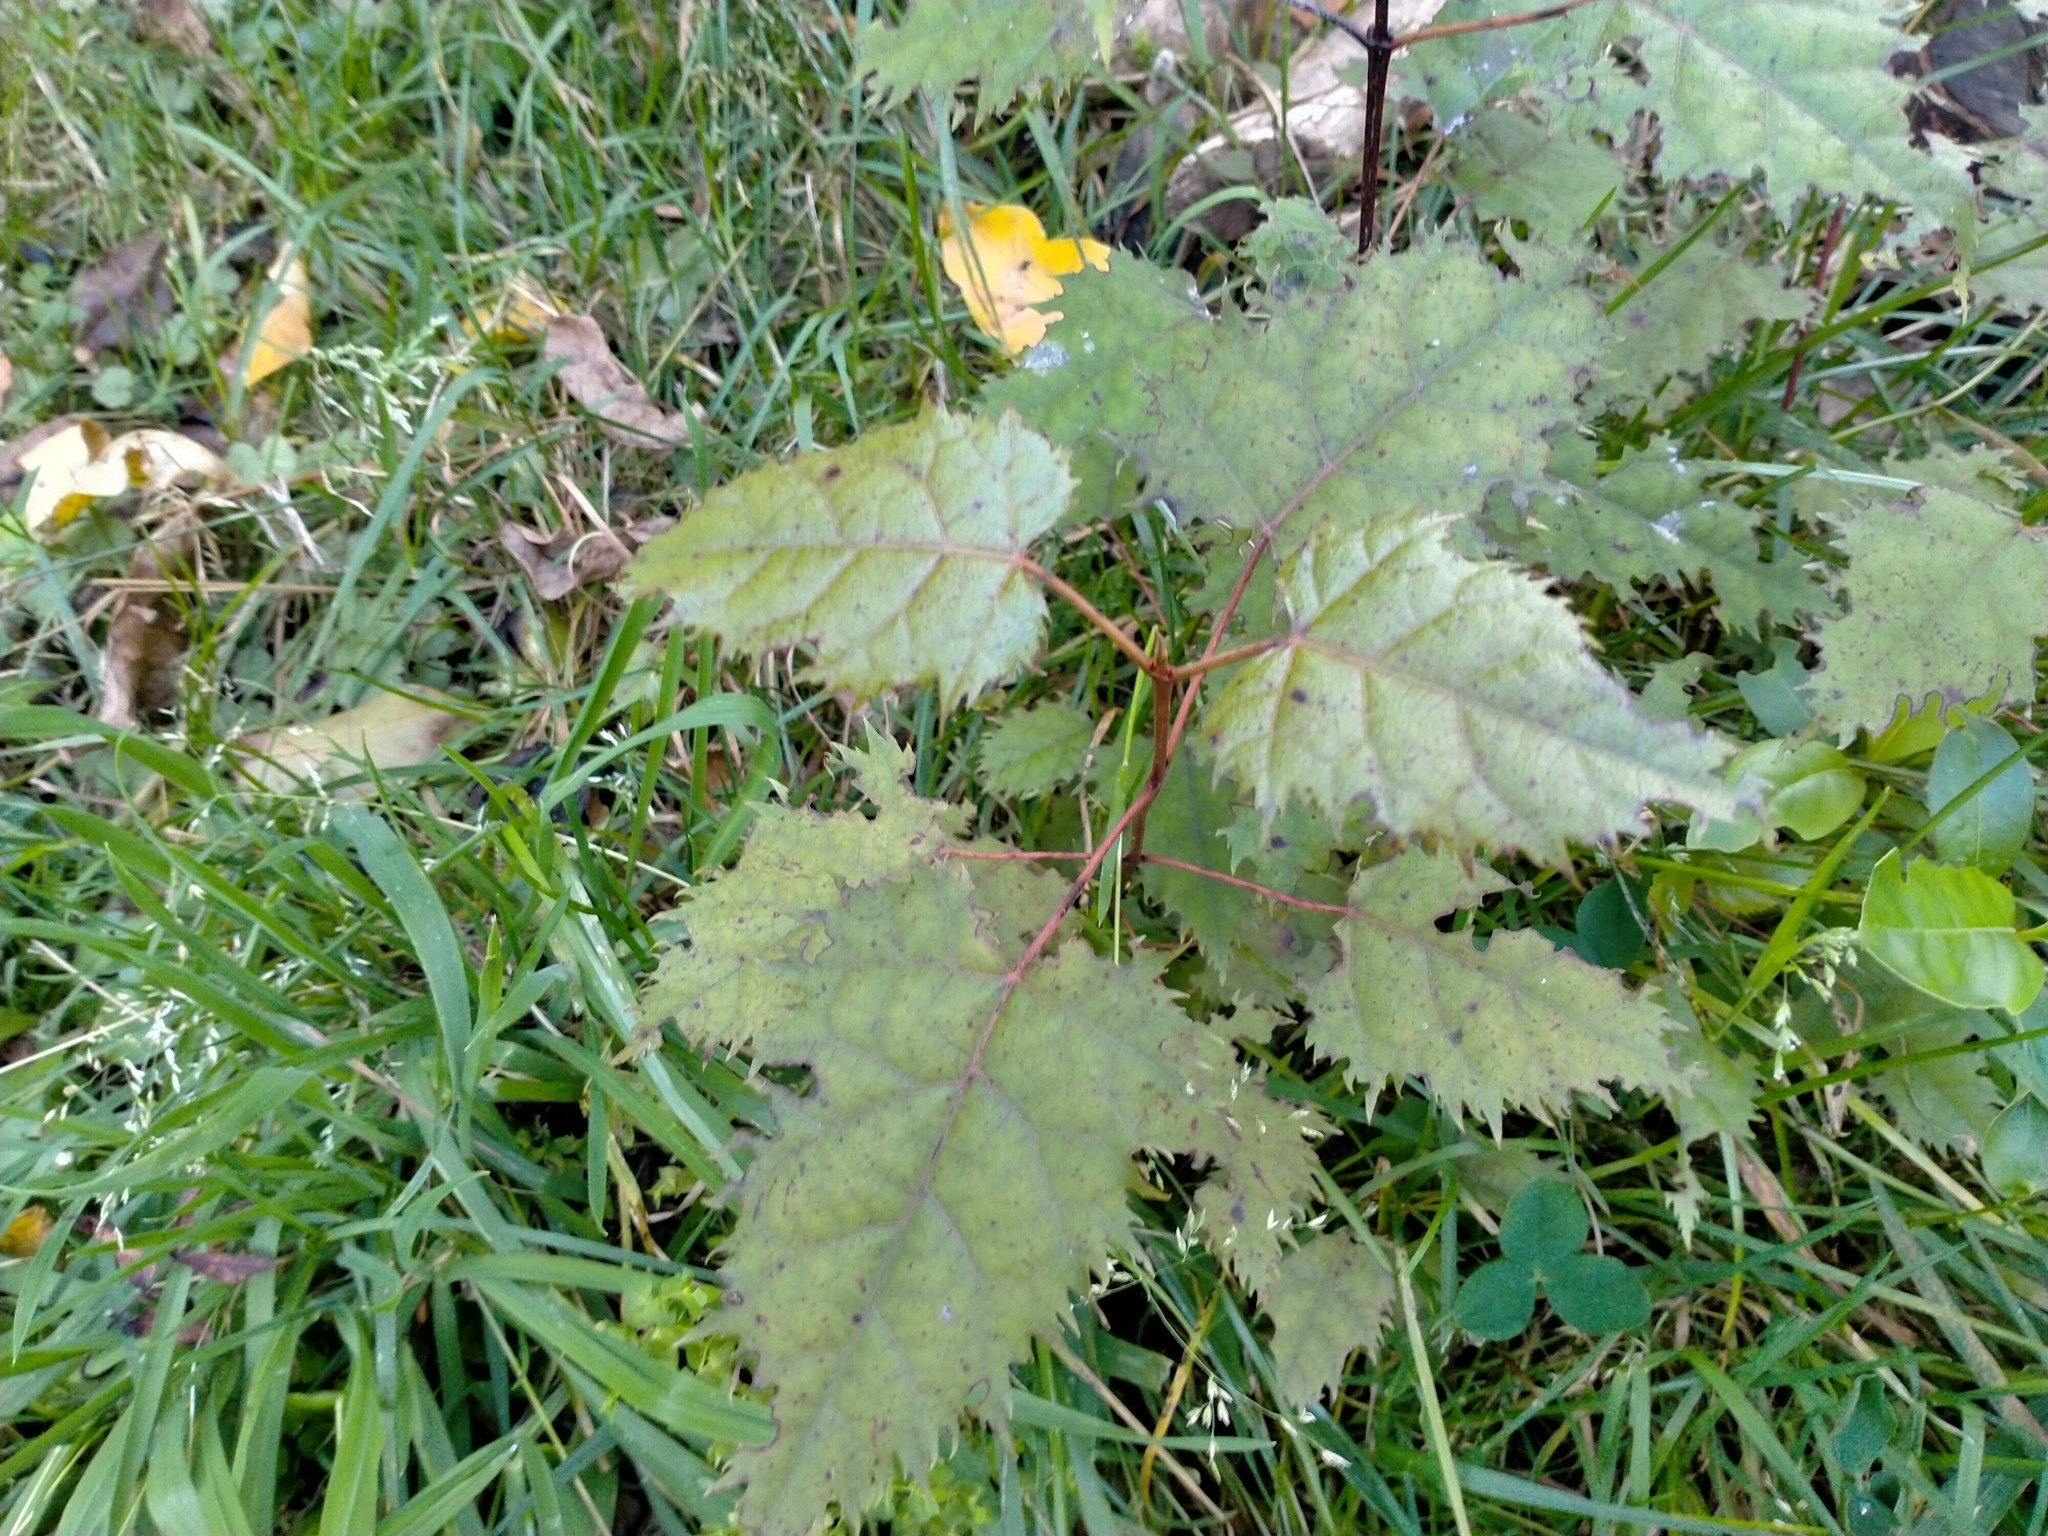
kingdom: Plantae
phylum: Tracheophyta
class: Magnoliopsida
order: Oxalidales
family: Elaeocarpaceae
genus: Aristotelia
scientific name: Aristotelia serrata
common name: New zealand wineberry
